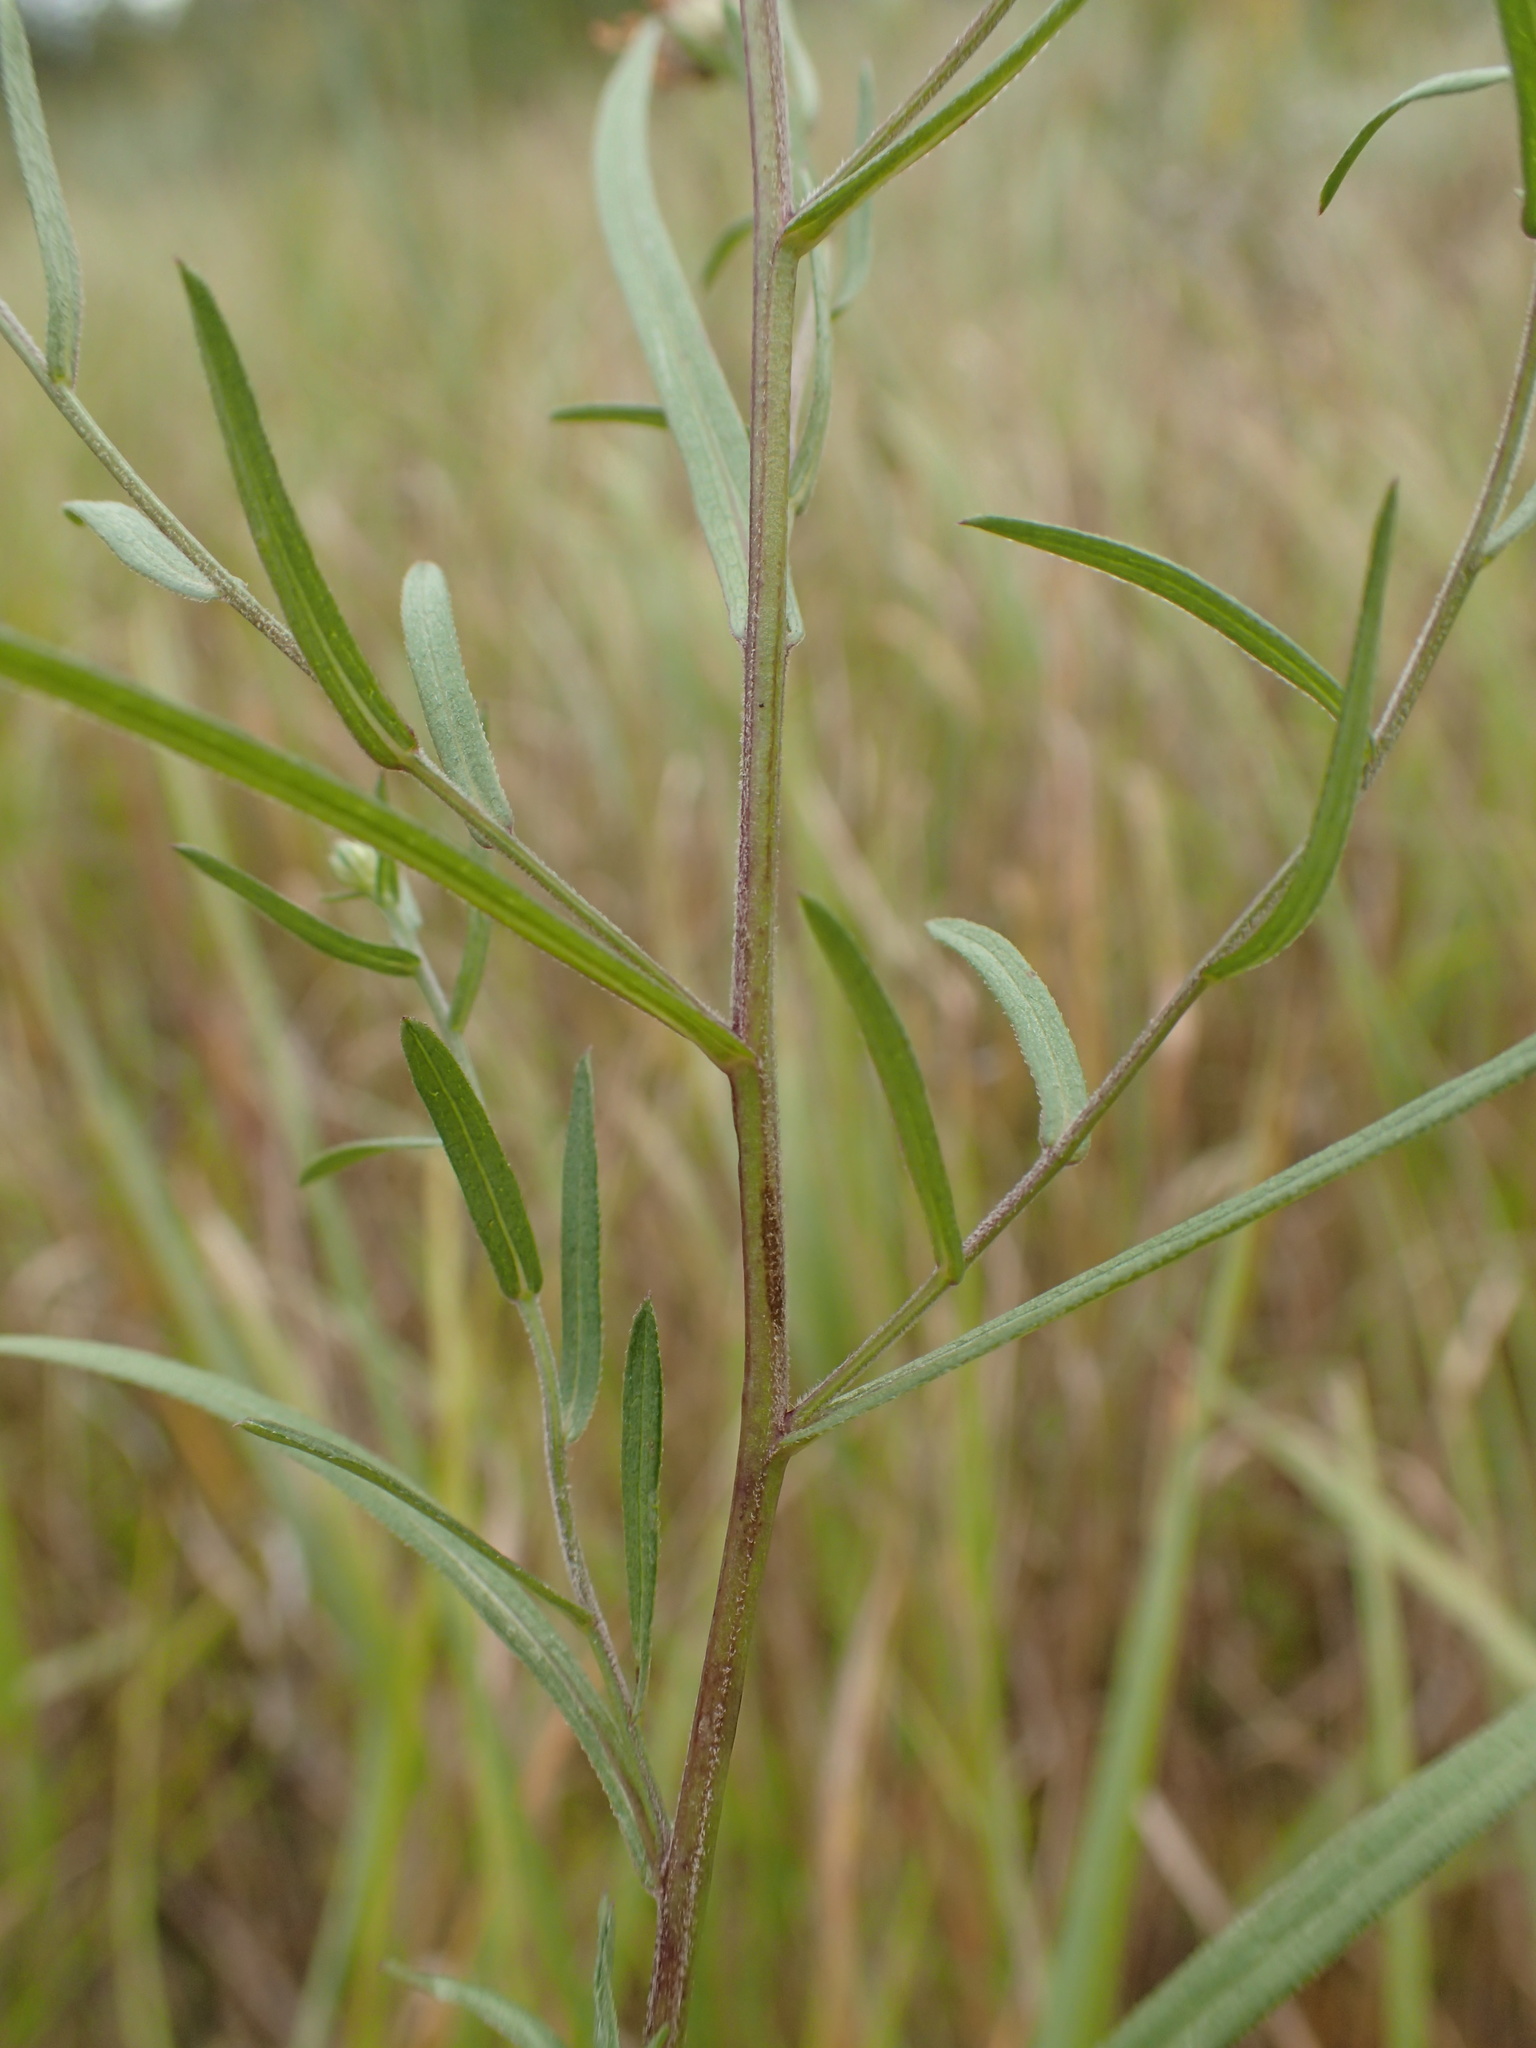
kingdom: Plantae
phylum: Tracheophyta
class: Magnoliopsida
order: Asterales
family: Asteraceae
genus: Symphyotrichum
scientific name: Symphyotrichum boreale
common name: Northern bog aster
